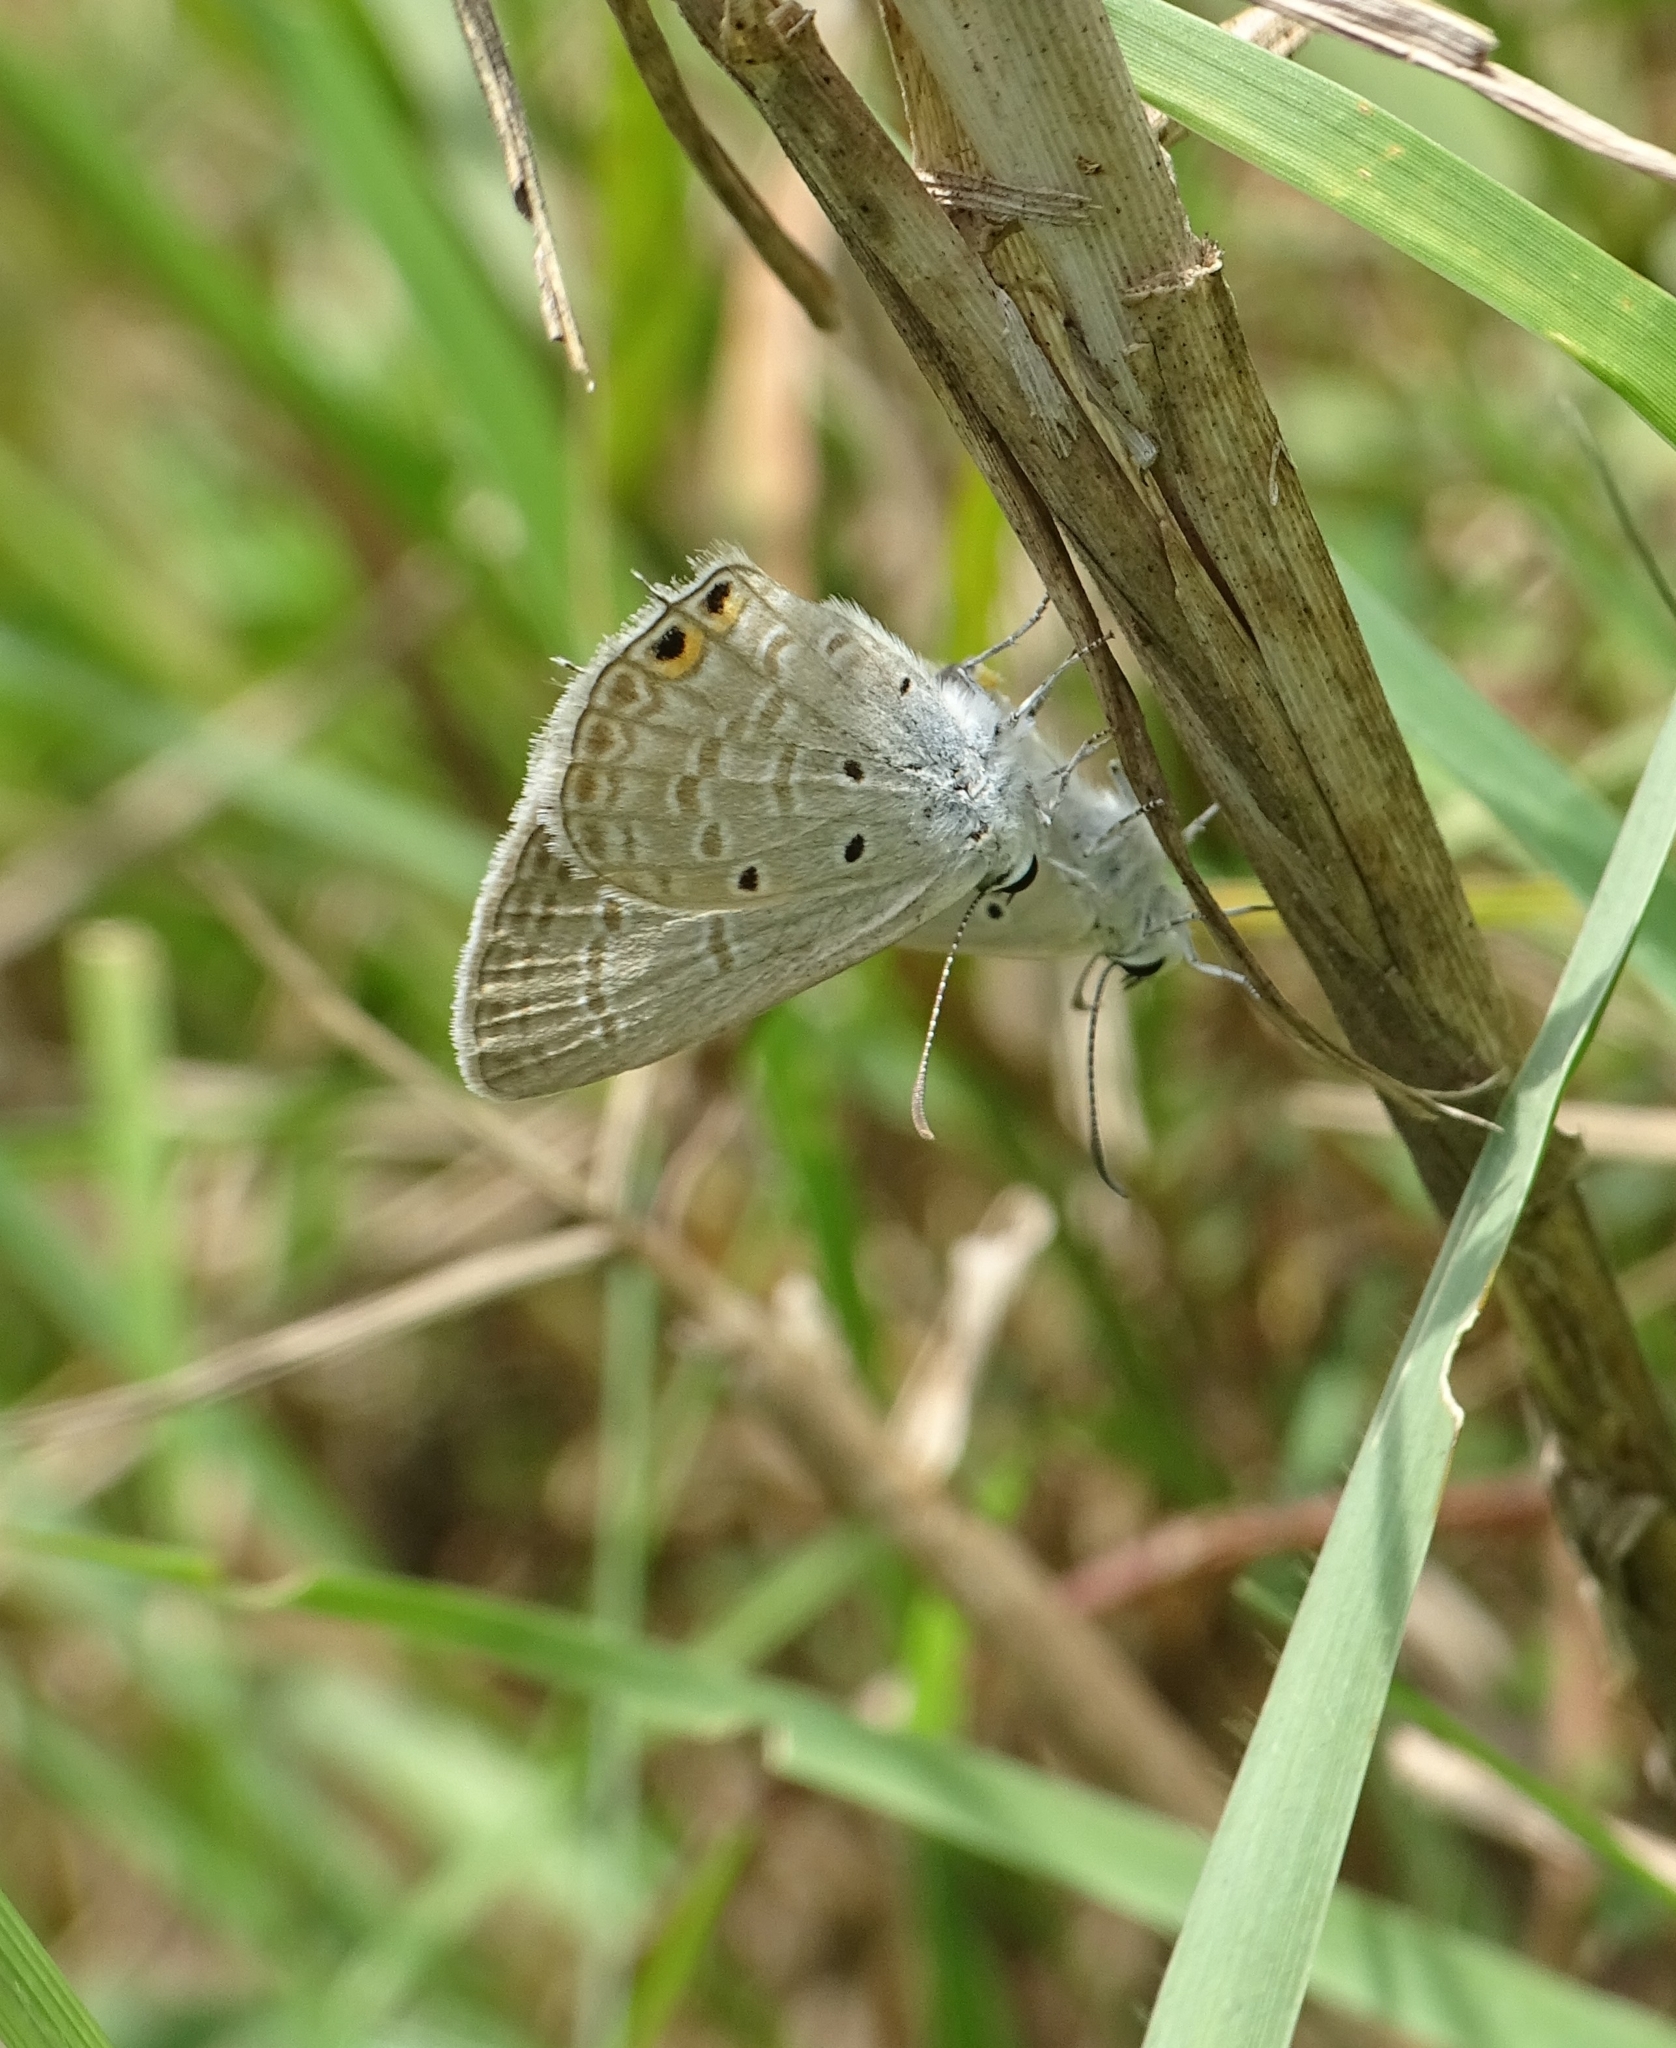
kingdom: Animalia
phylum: Arthropoda
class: Insecta
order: Lepidoptera
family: Lycaenidae
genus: Euchrysops
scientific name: Euchrysops cnejus
